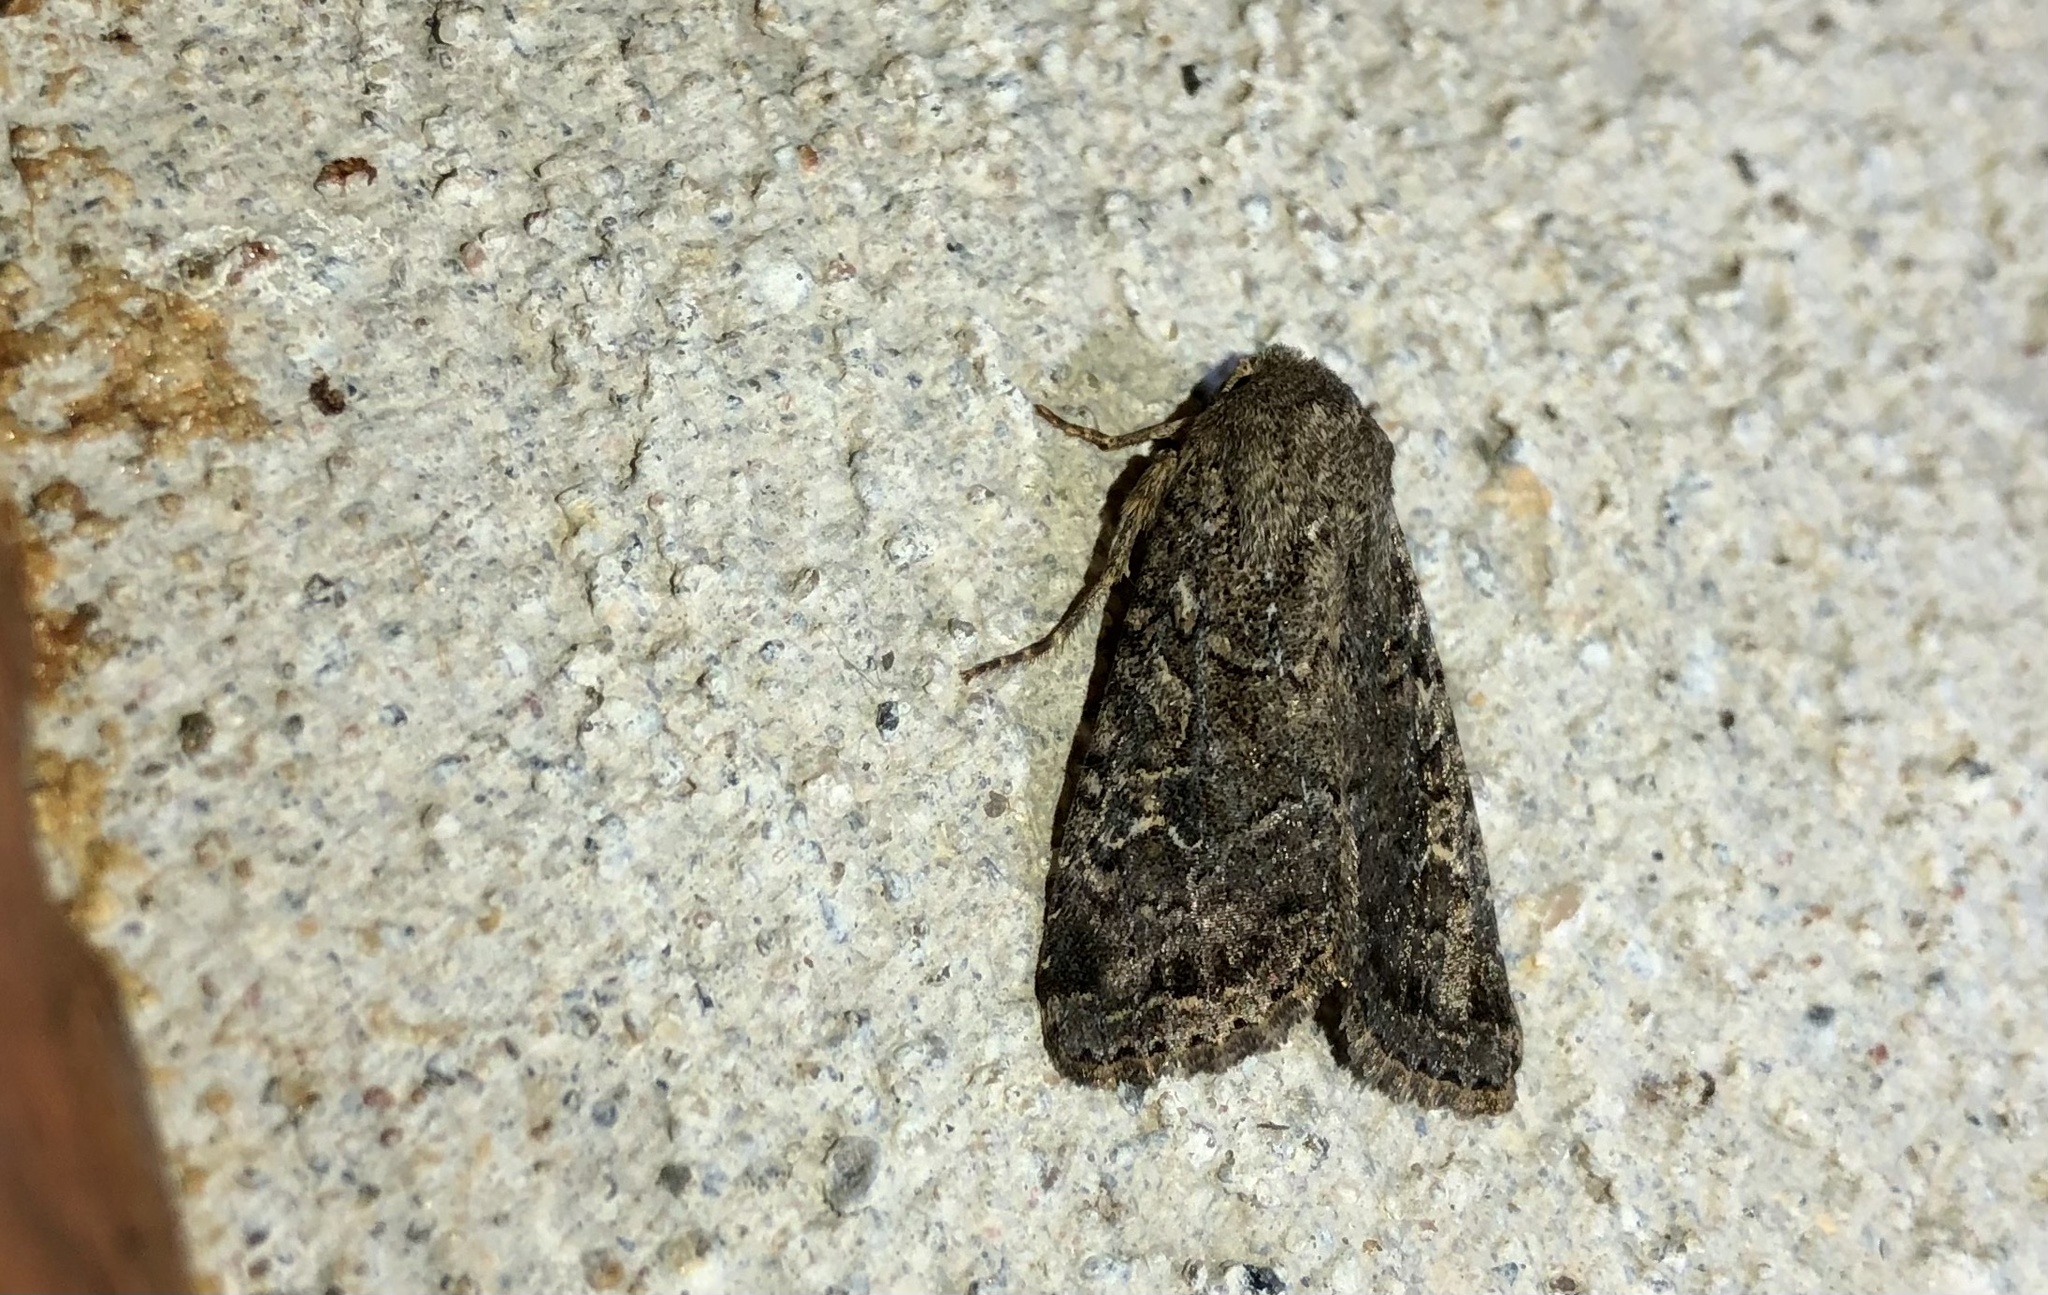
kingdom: Animalia
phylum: Arthropoda
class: Insecta
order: Lepidoptera
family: Noctuidae
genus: Apamea
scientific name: Apamea devastator
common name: Glassy cutworm
